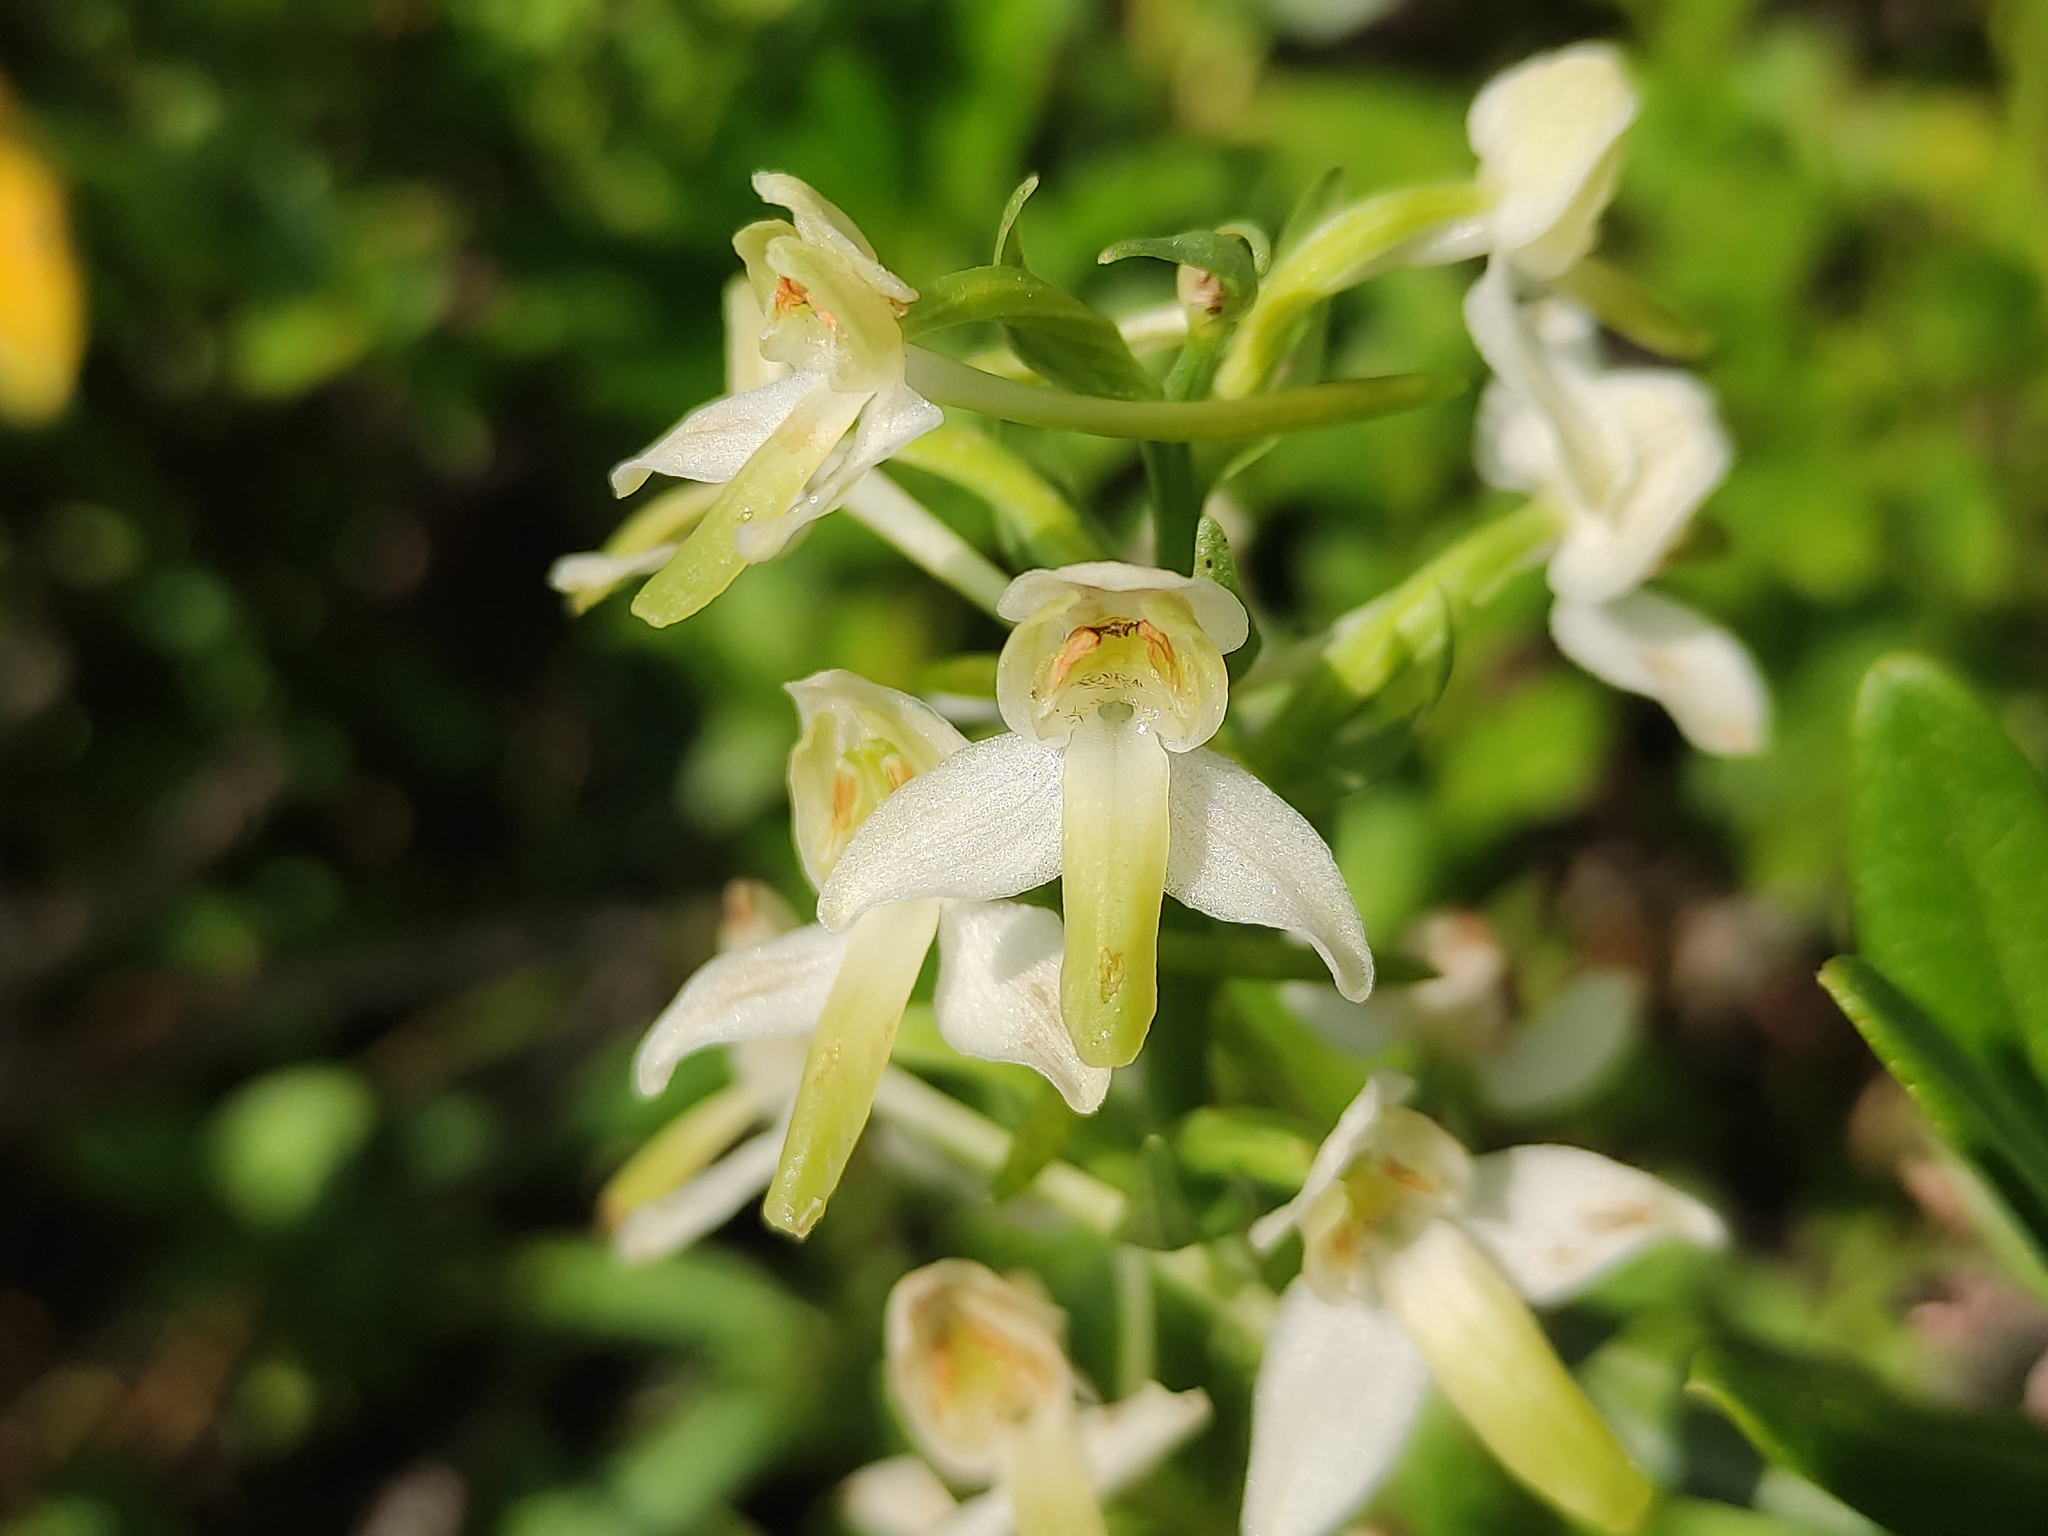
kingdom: Plantae
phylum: Tracheophyta
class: Liliopsida
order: Asparagales
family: Orchidaceae
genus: Platanthera
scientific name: Platanthera chlorantha
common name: Greater butterfly-orchid
